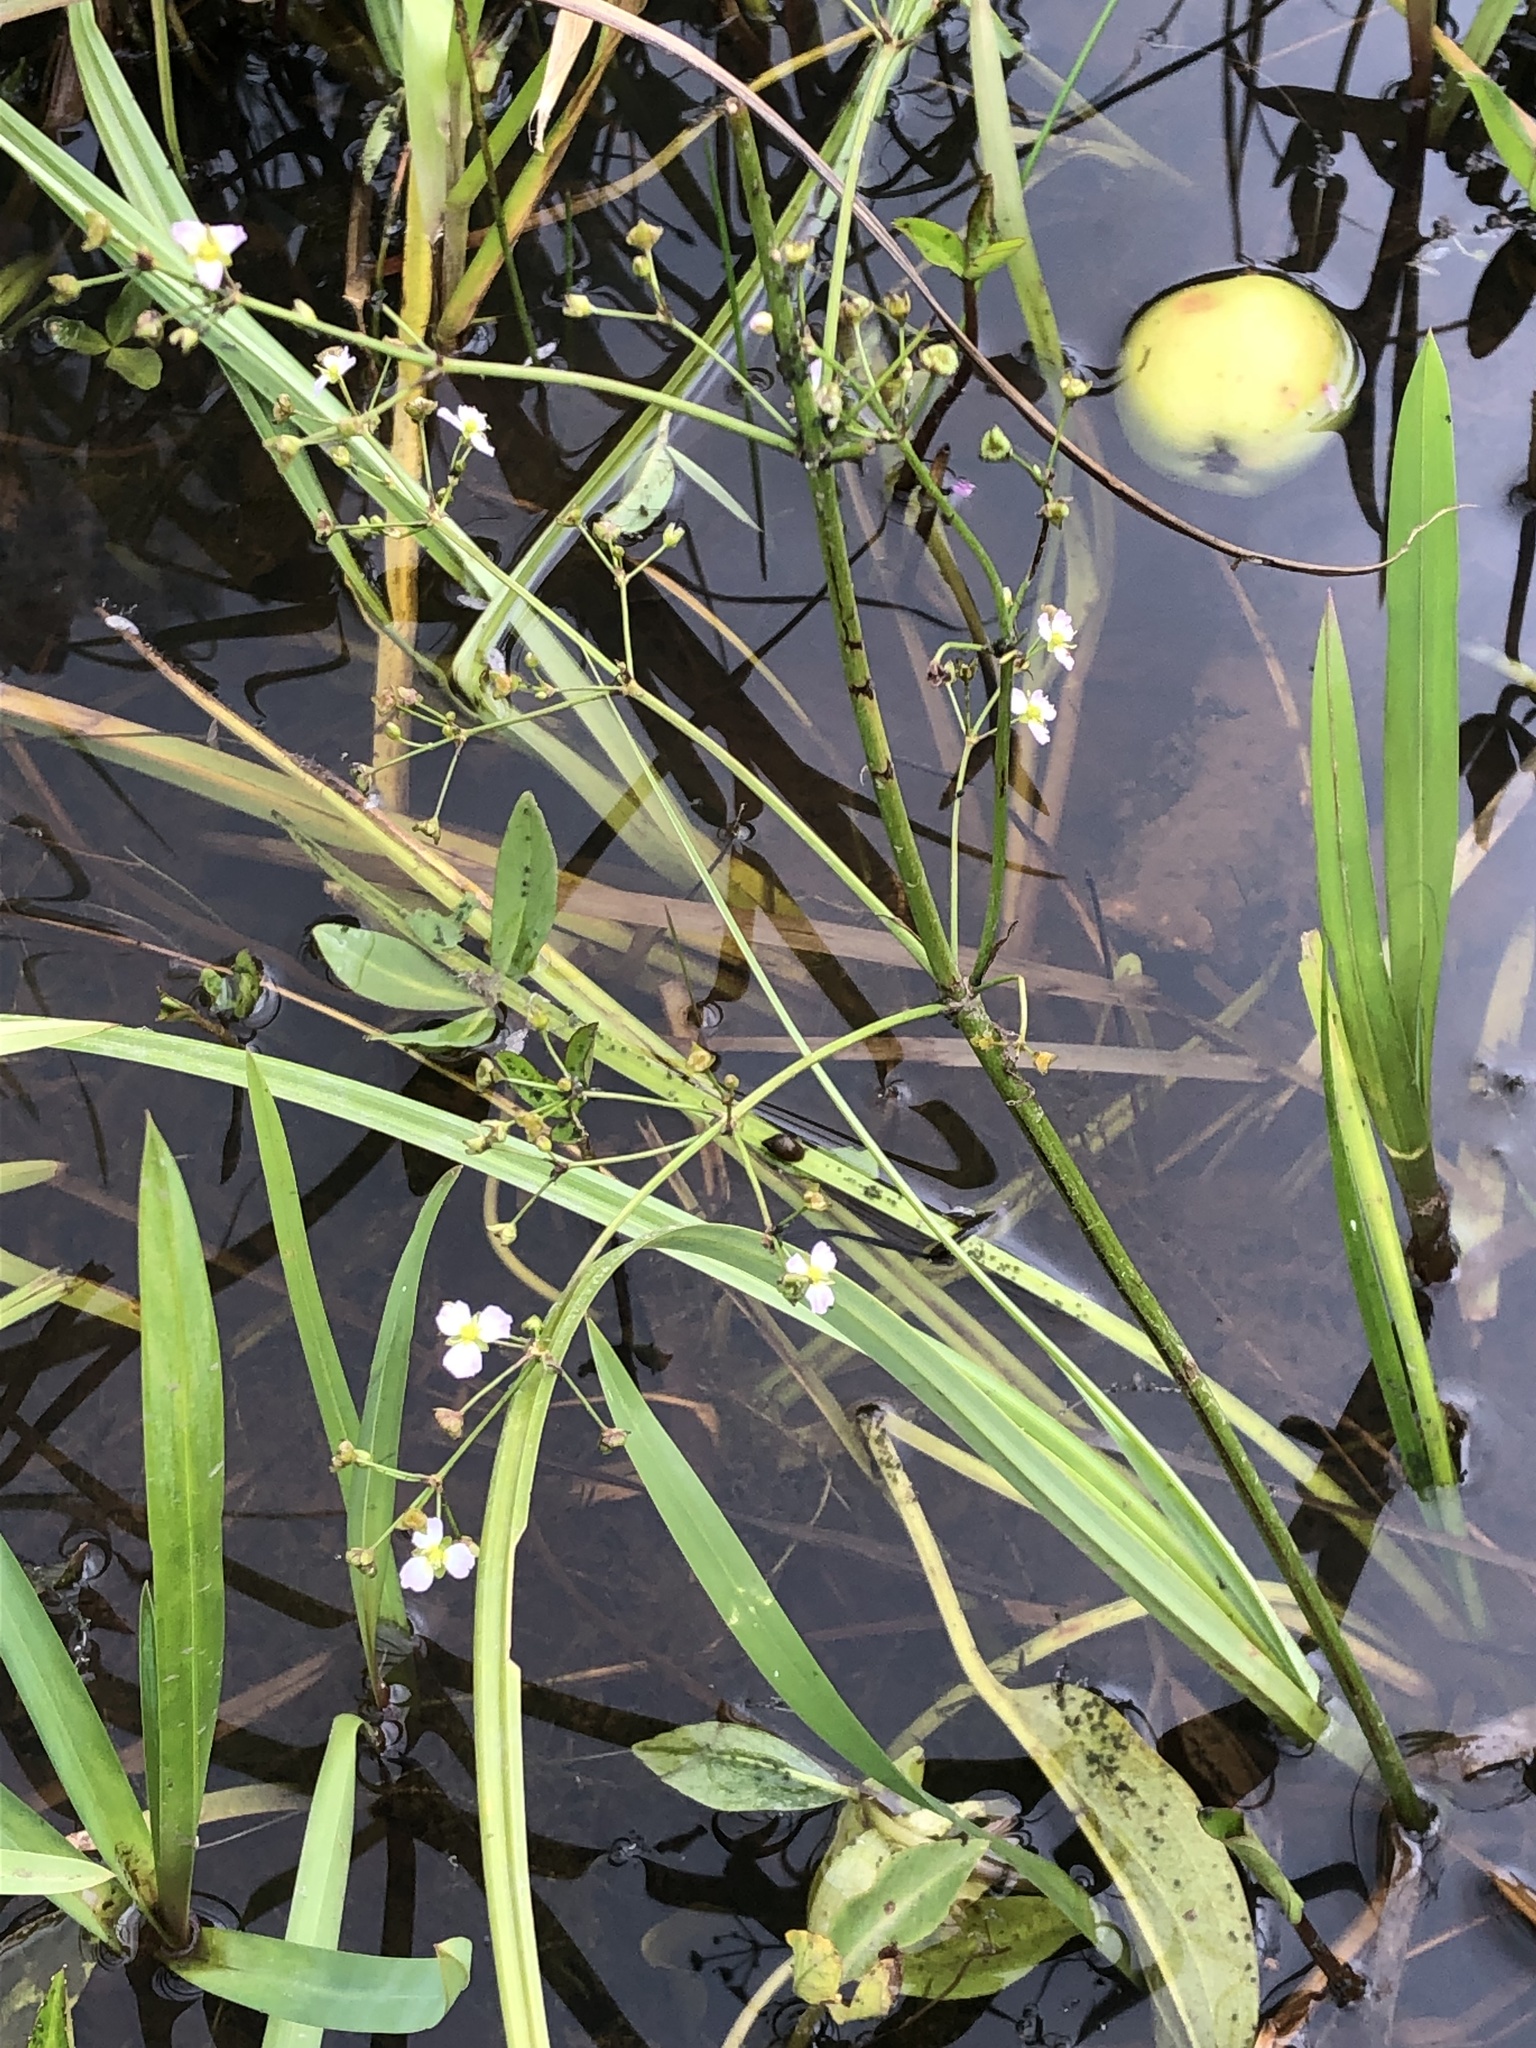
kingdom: Plantae
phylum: Tracheophyta
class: Liliopsida
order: Alismatales
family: Alismataceae
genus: Alisma
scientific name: Alisma plantago-aquatica
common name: Water-plantain
